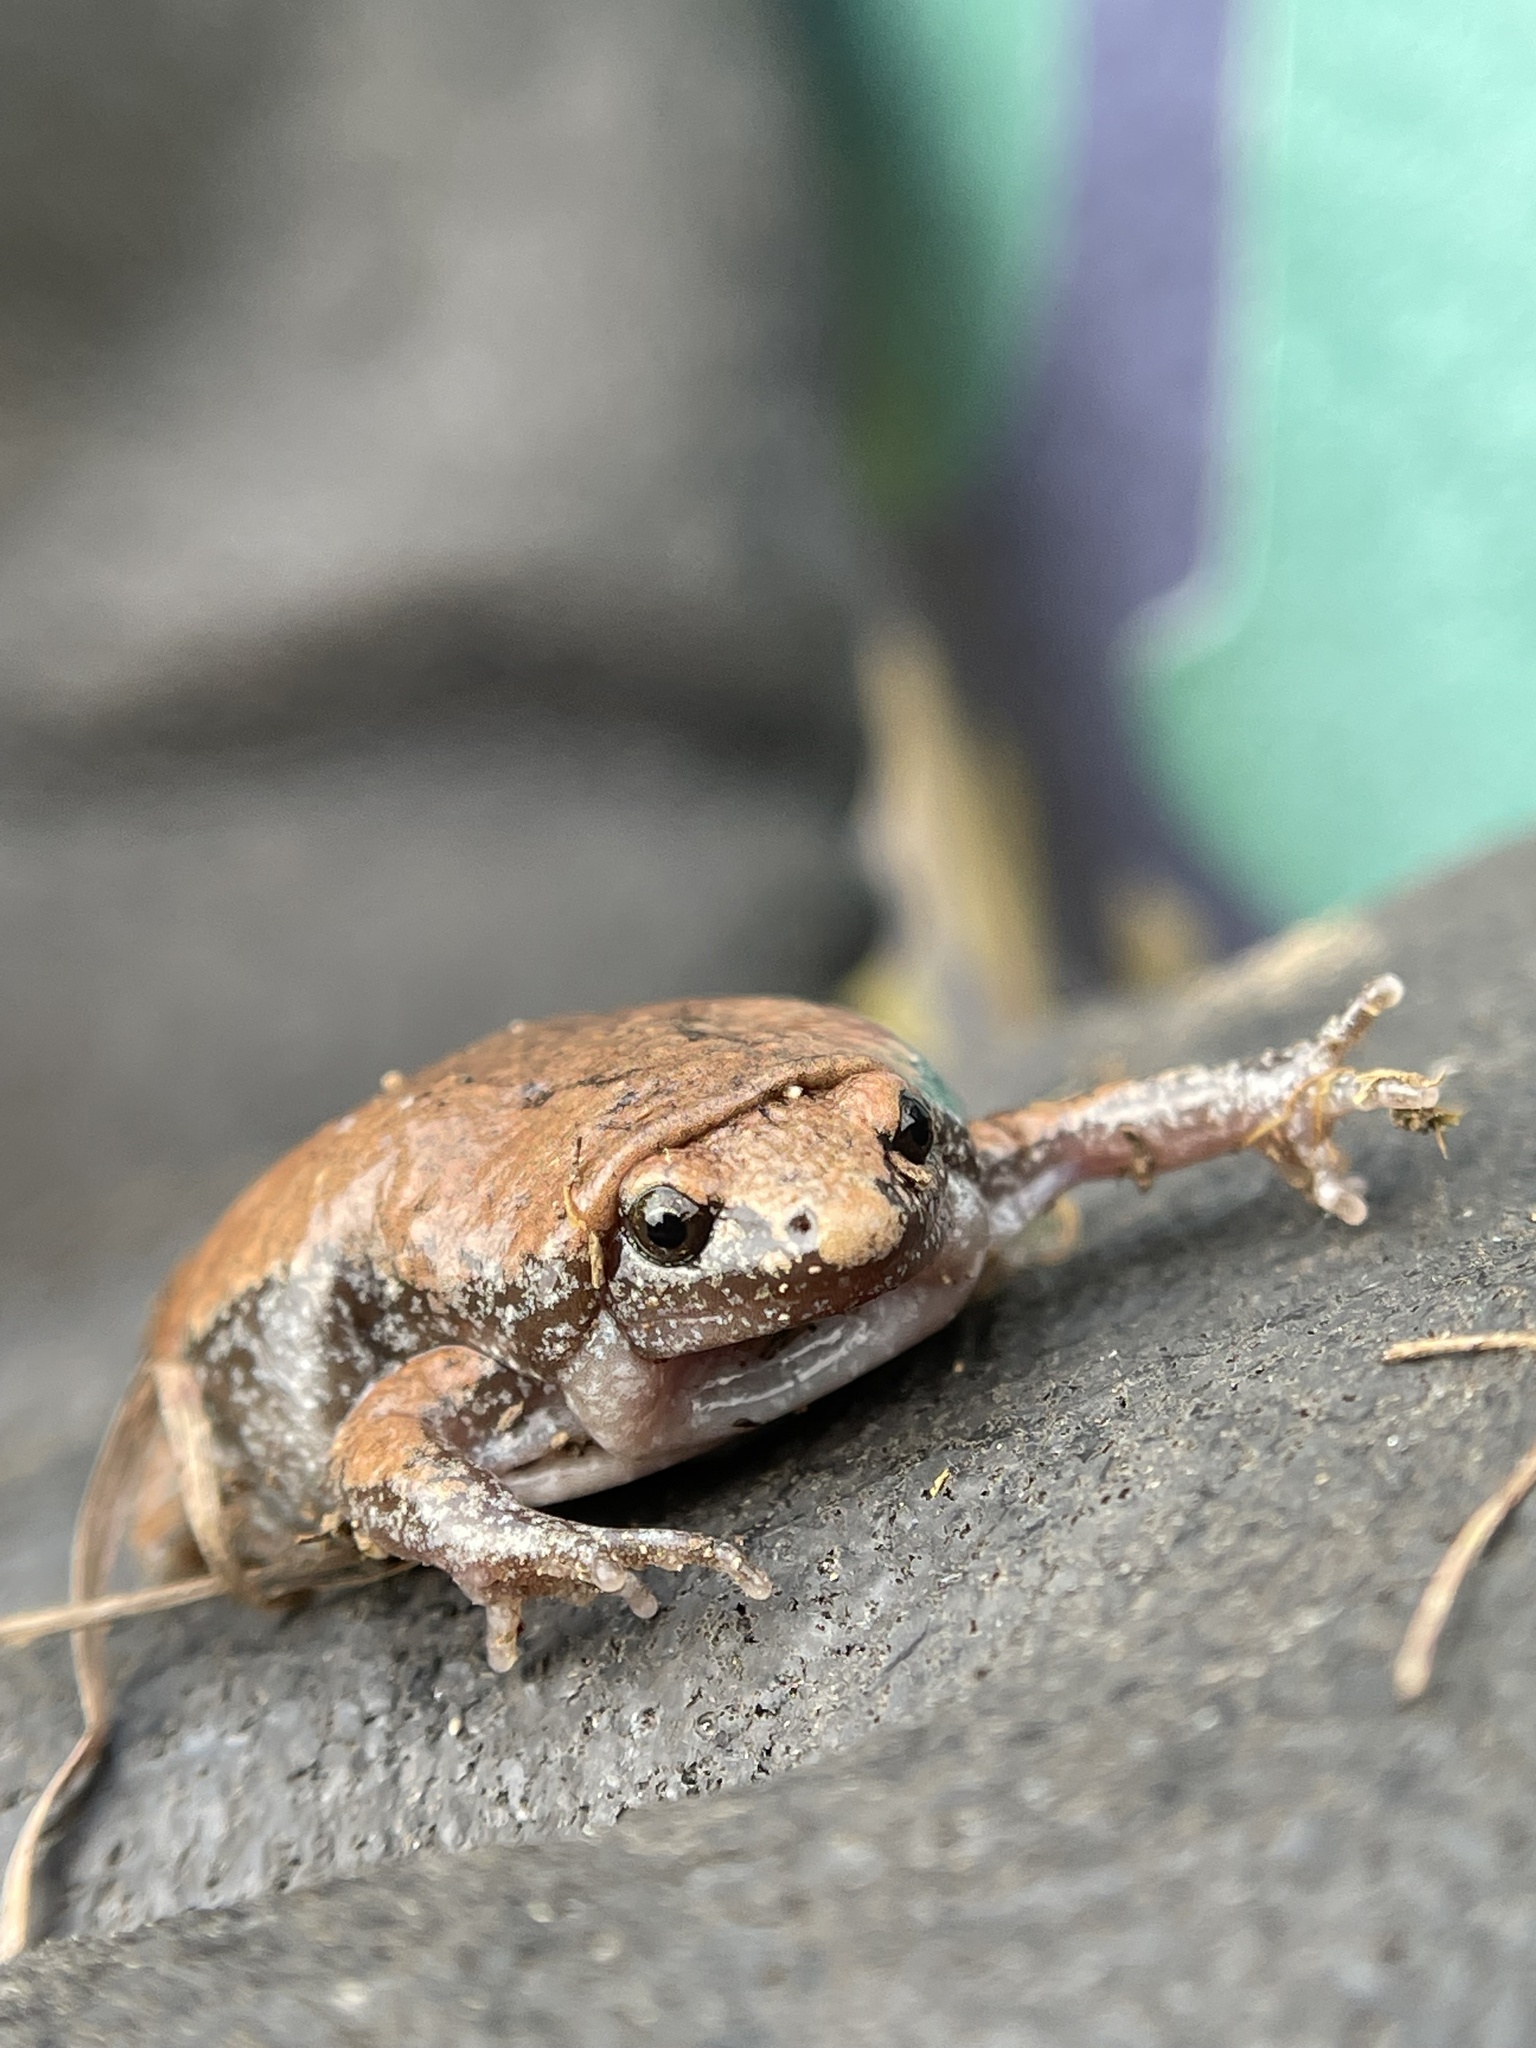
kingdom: Animalia
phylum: Chordata
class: Amphibia
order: Anura
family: Microhylidae
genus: Gastrophryne
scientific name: Gastrophryne carolinensis
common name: Eastern narrowmouth toad
